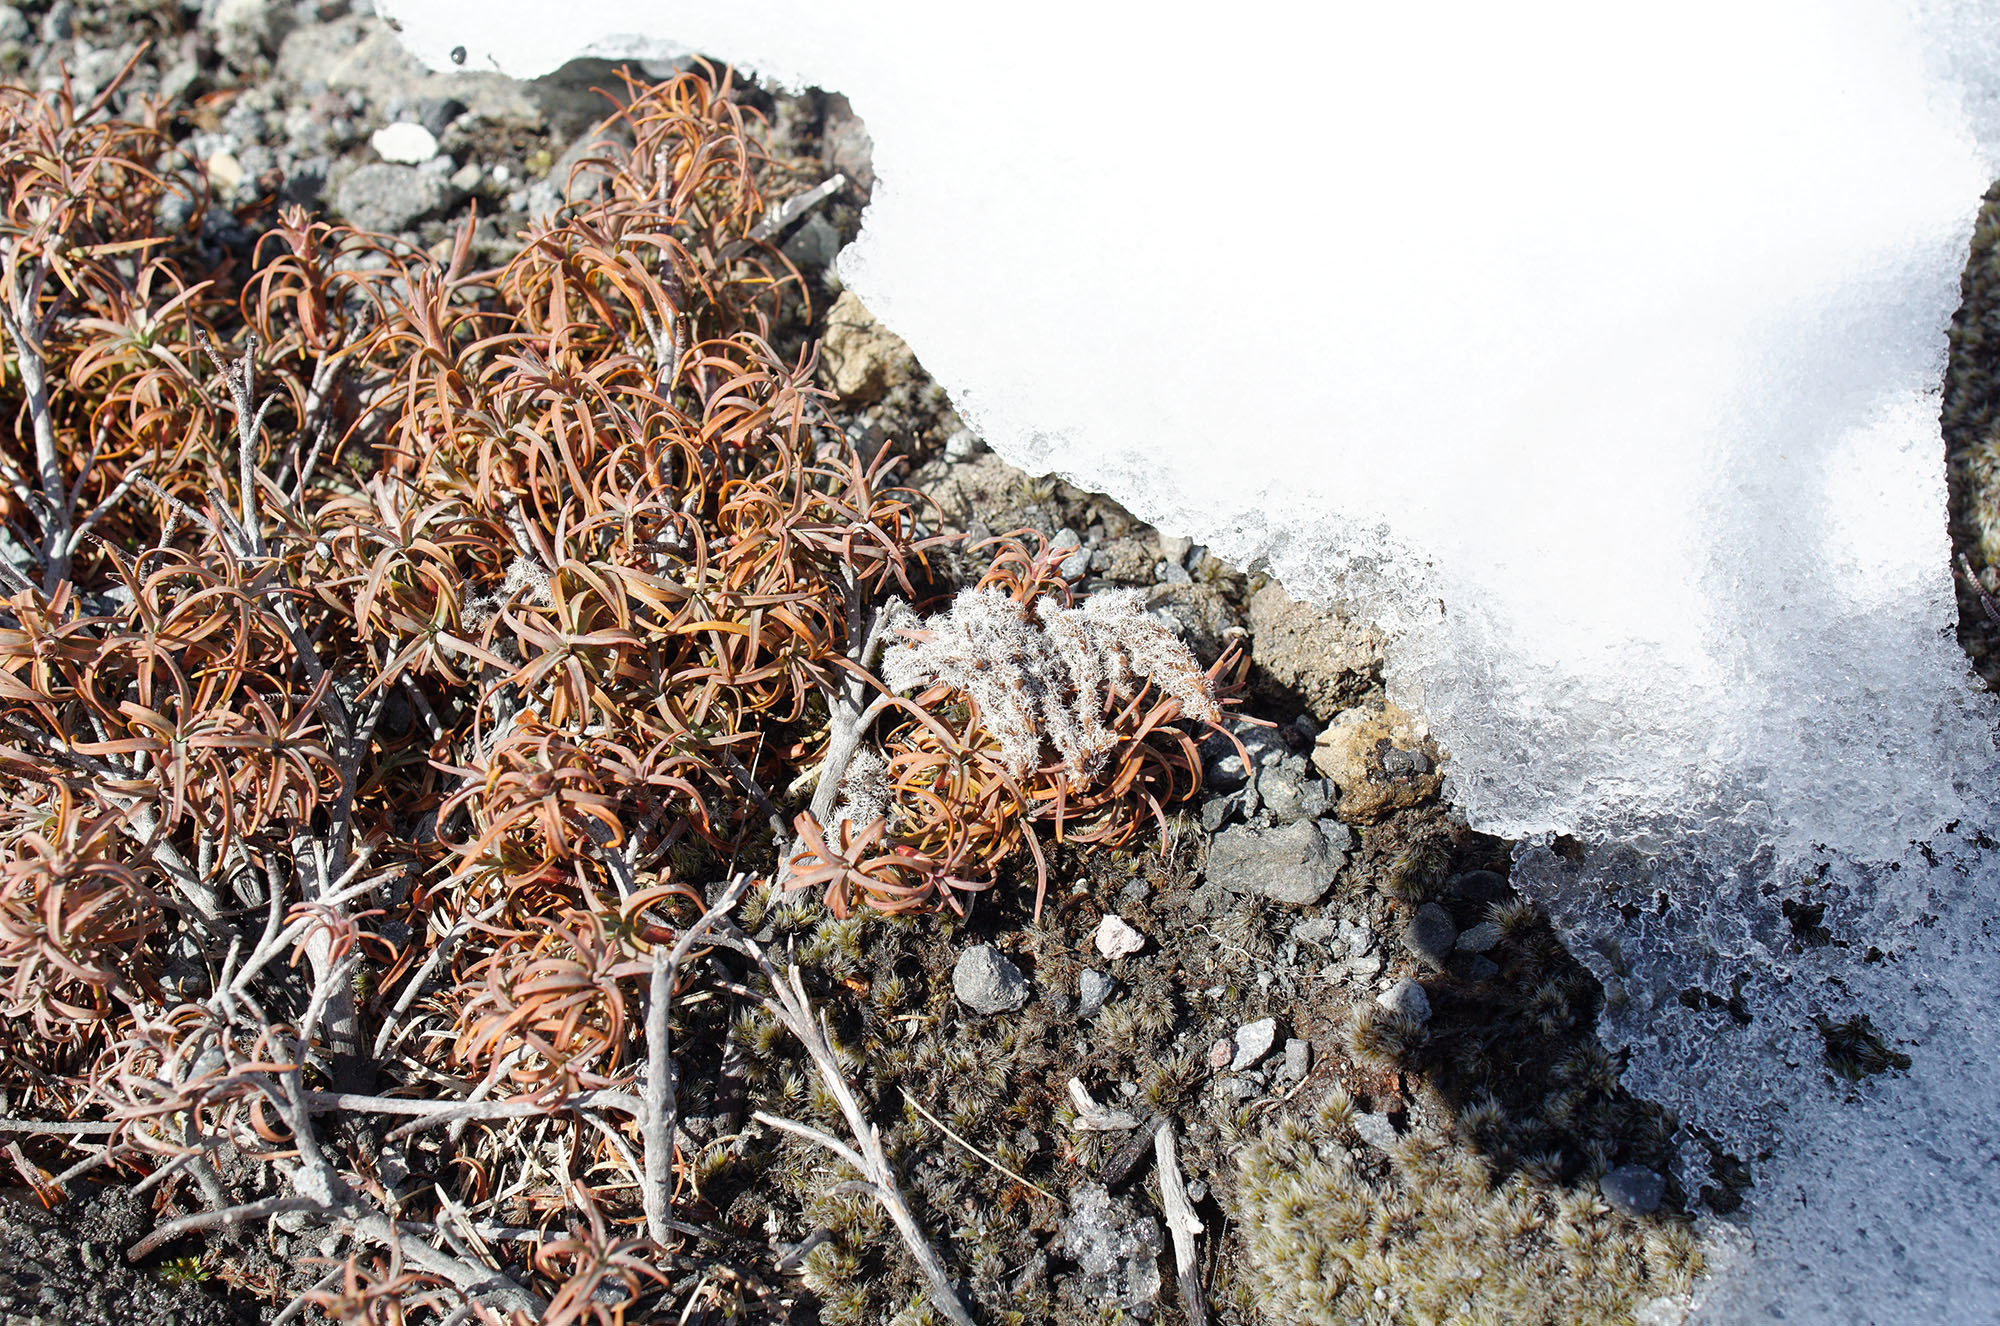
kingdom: Plantae
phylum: Tracheophyta
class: Magnoliopsida
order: Ericales
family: Ericaceae
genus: Dracophyllum
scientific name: Dracophyllum recurvum
